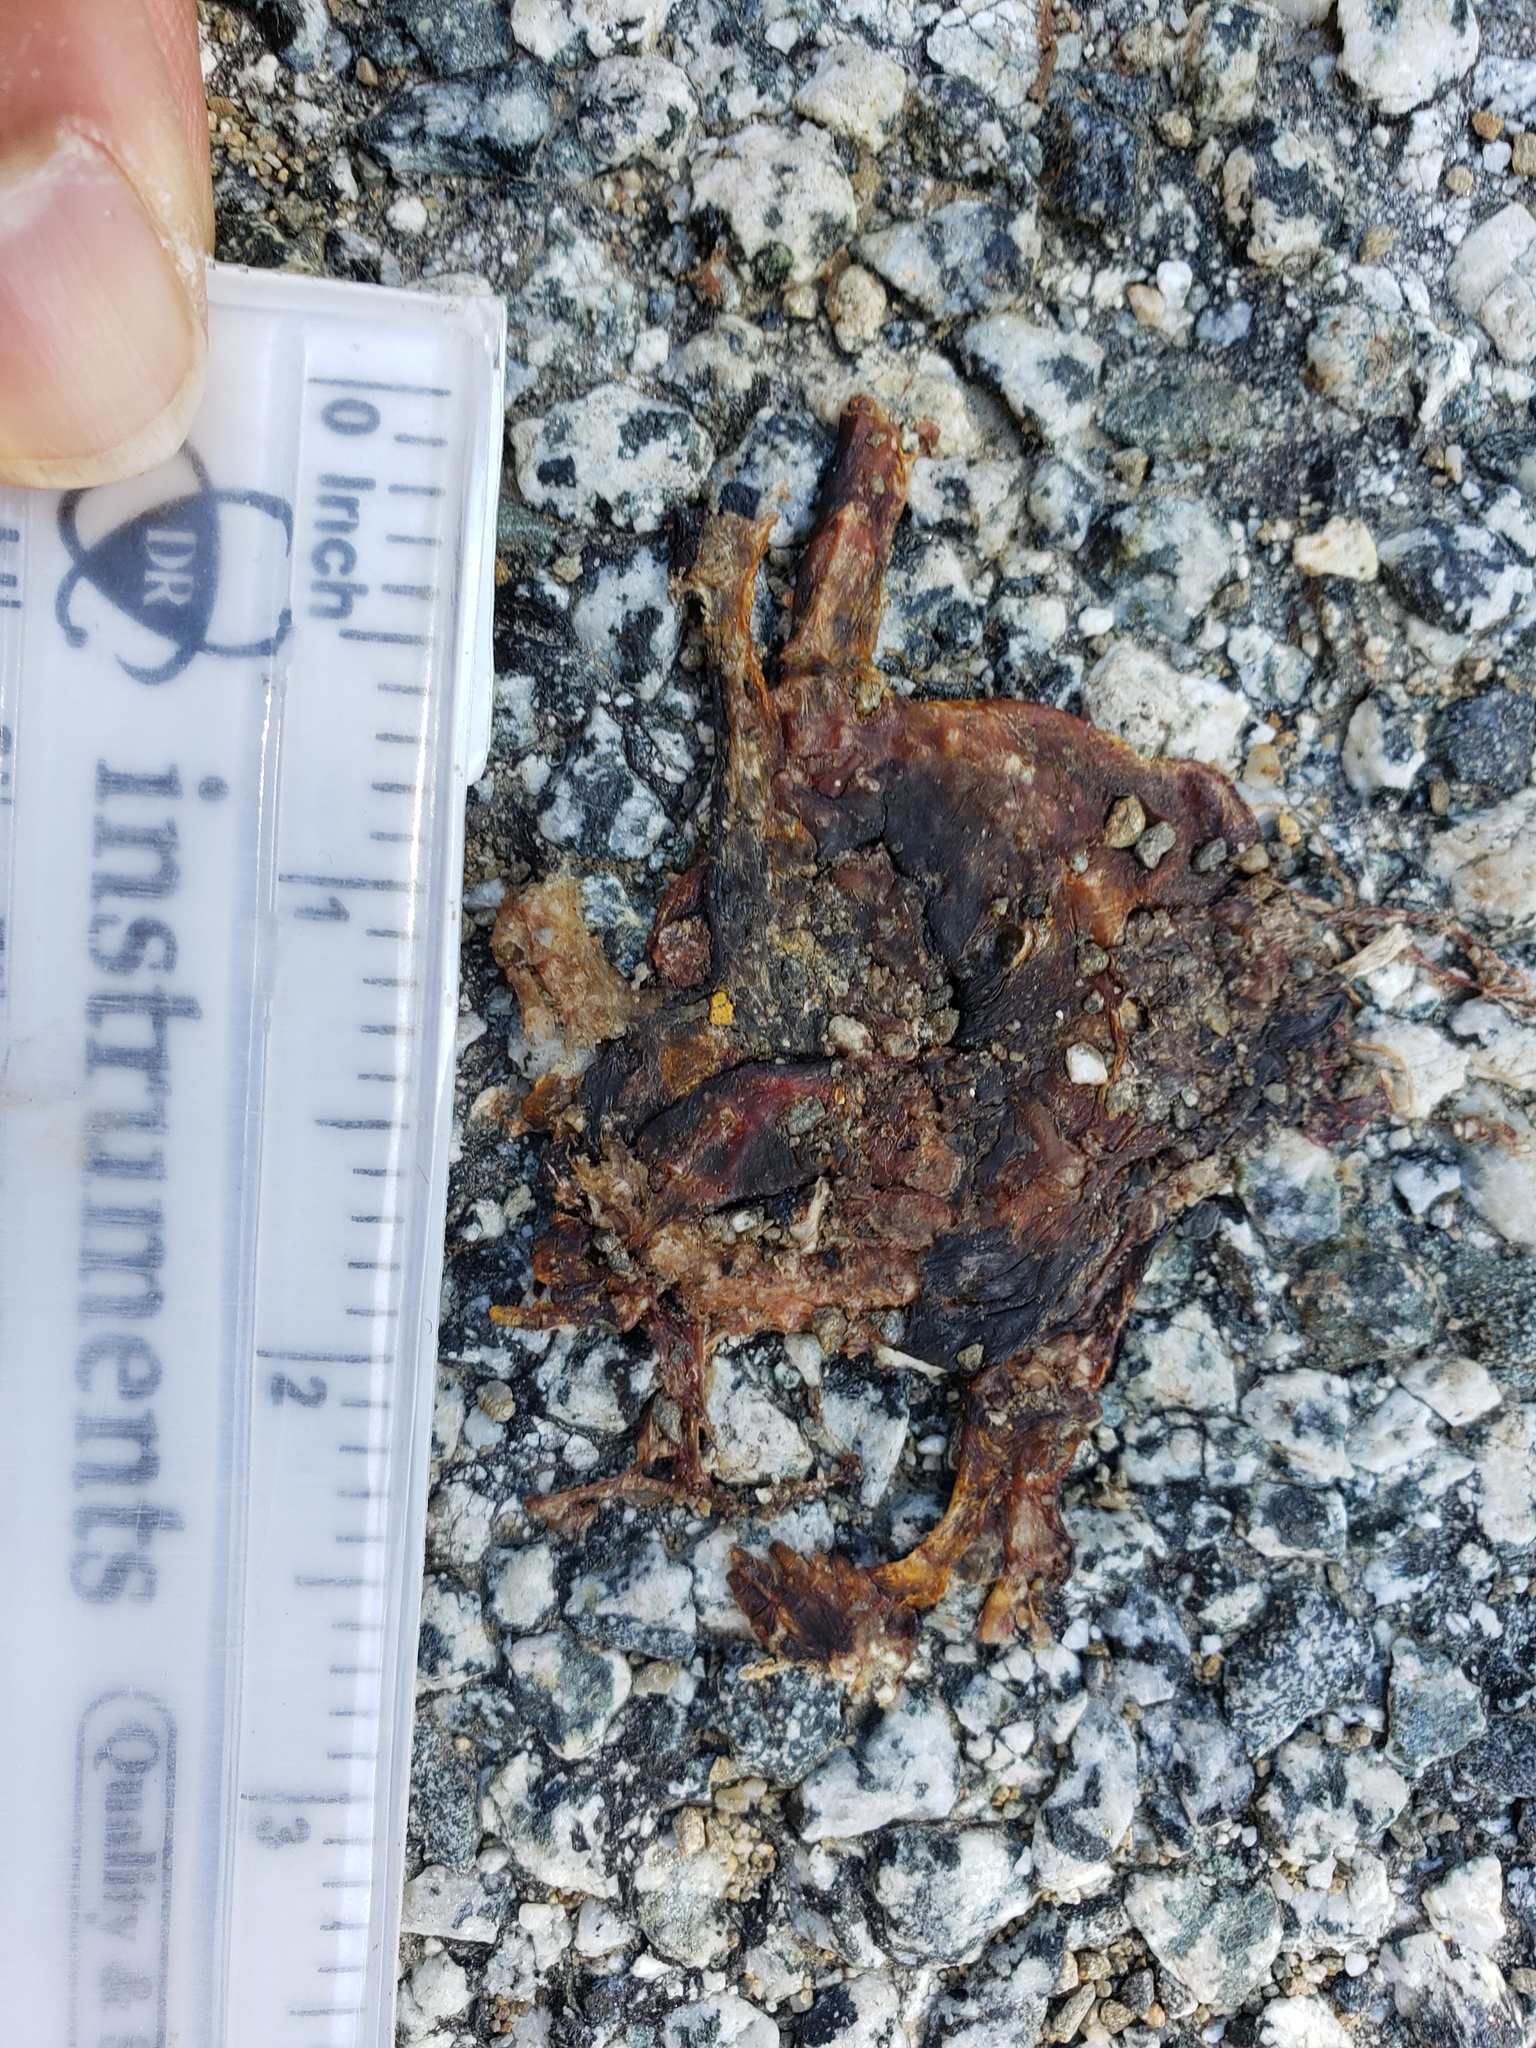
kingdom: Animalia
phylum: Chordata
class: Amphibia
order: Caudata
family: Salamandridae
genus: Taricha
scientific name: Taricha
